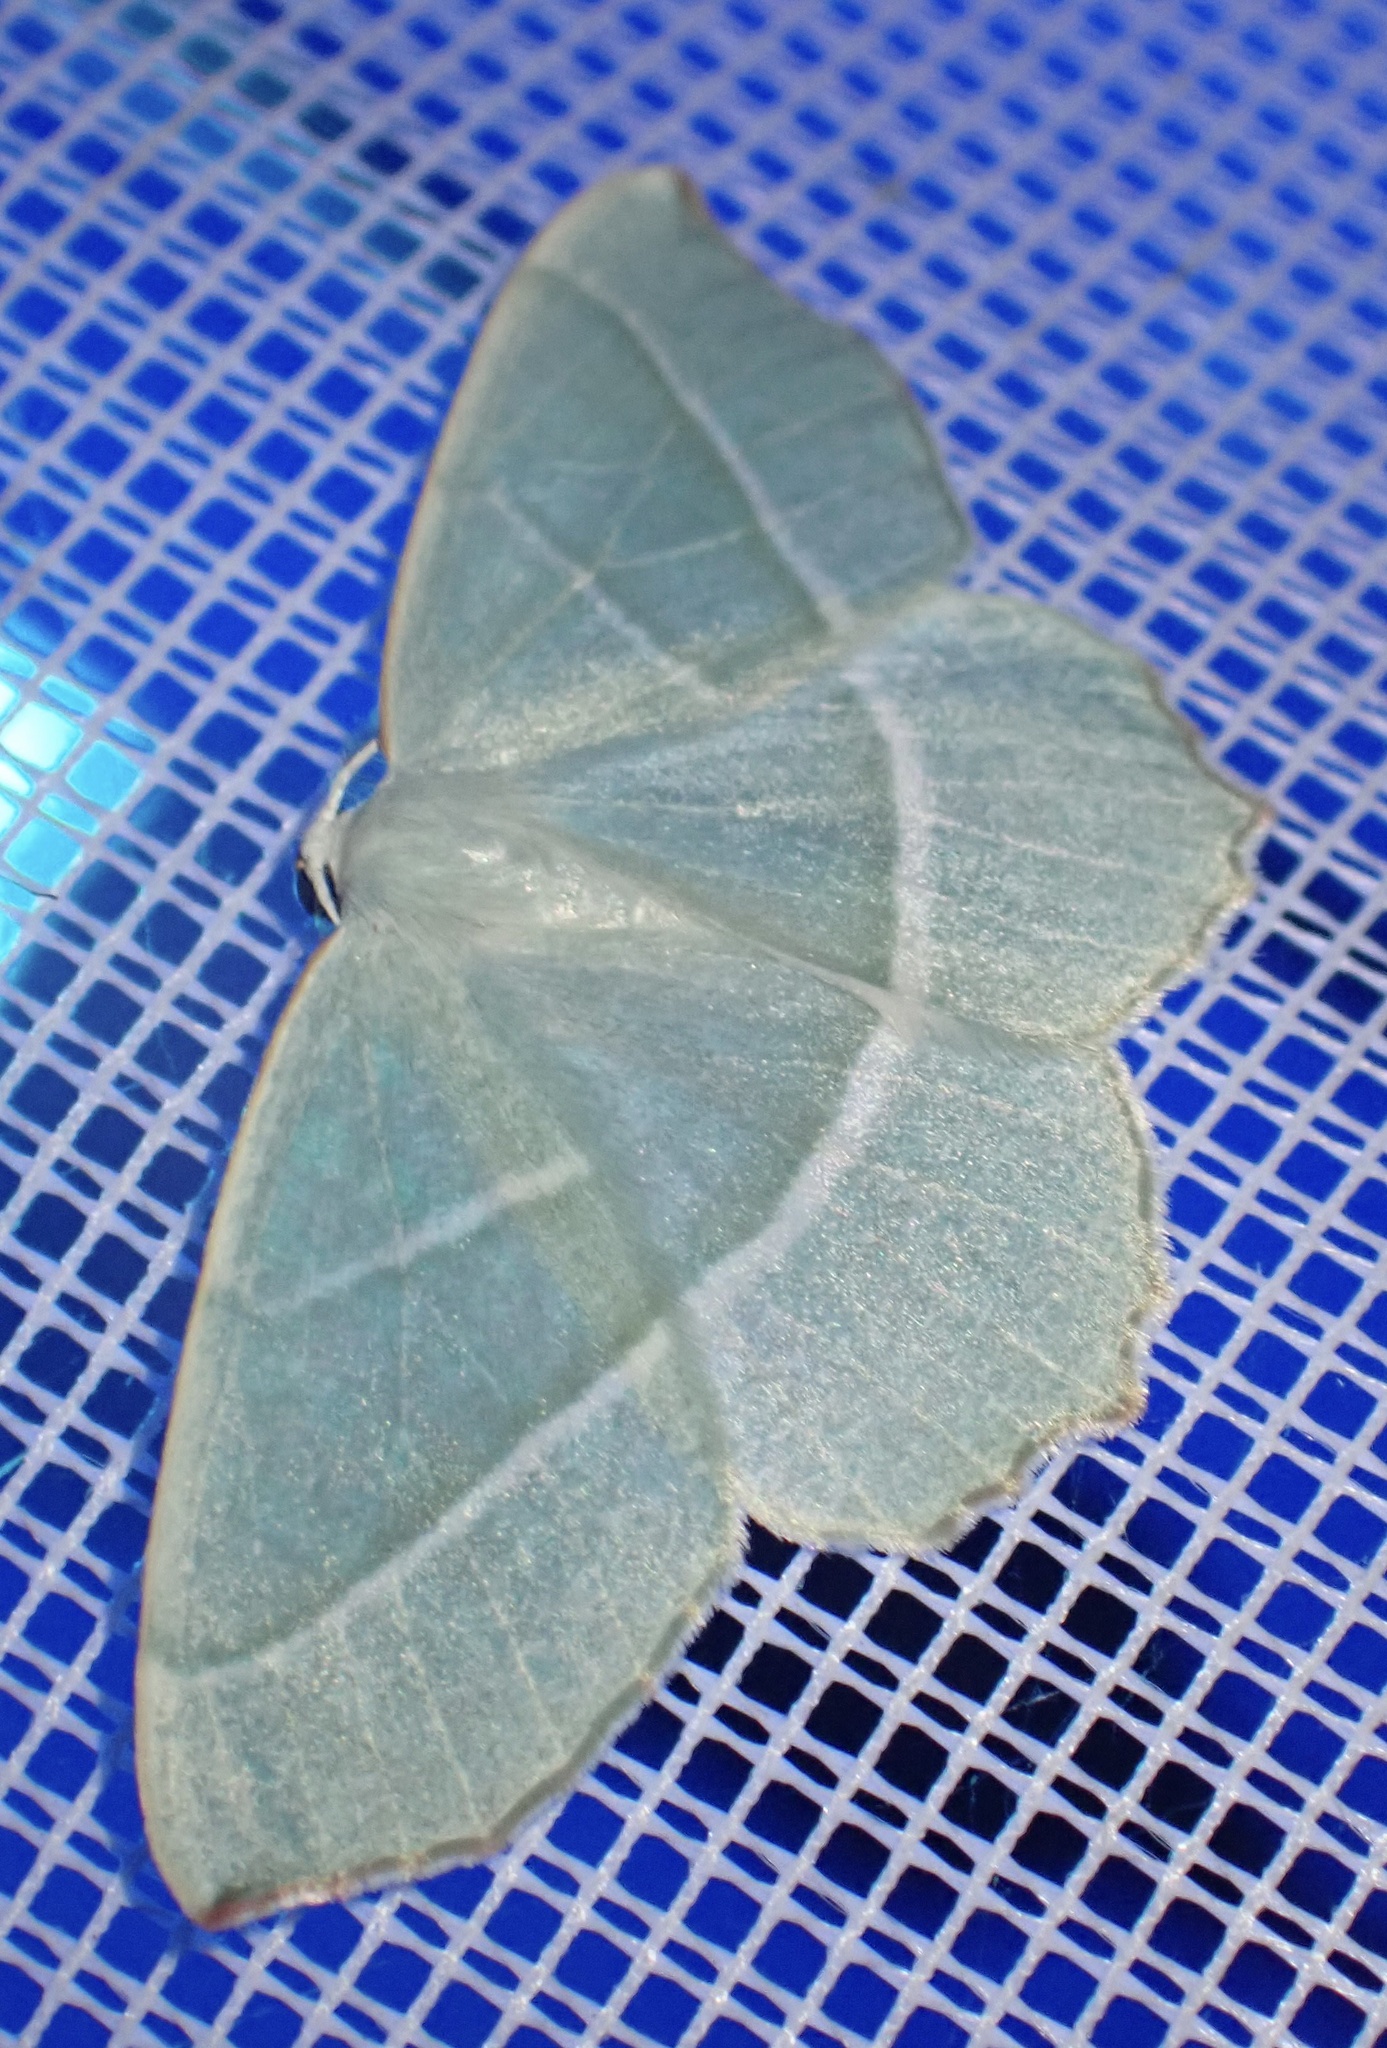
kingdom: Animalia
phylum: Arthropoda
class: Insecta
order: Lepidoptera
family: Geometridae
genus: Campaea
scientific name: Campaea margaritaria
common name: Light emerald
